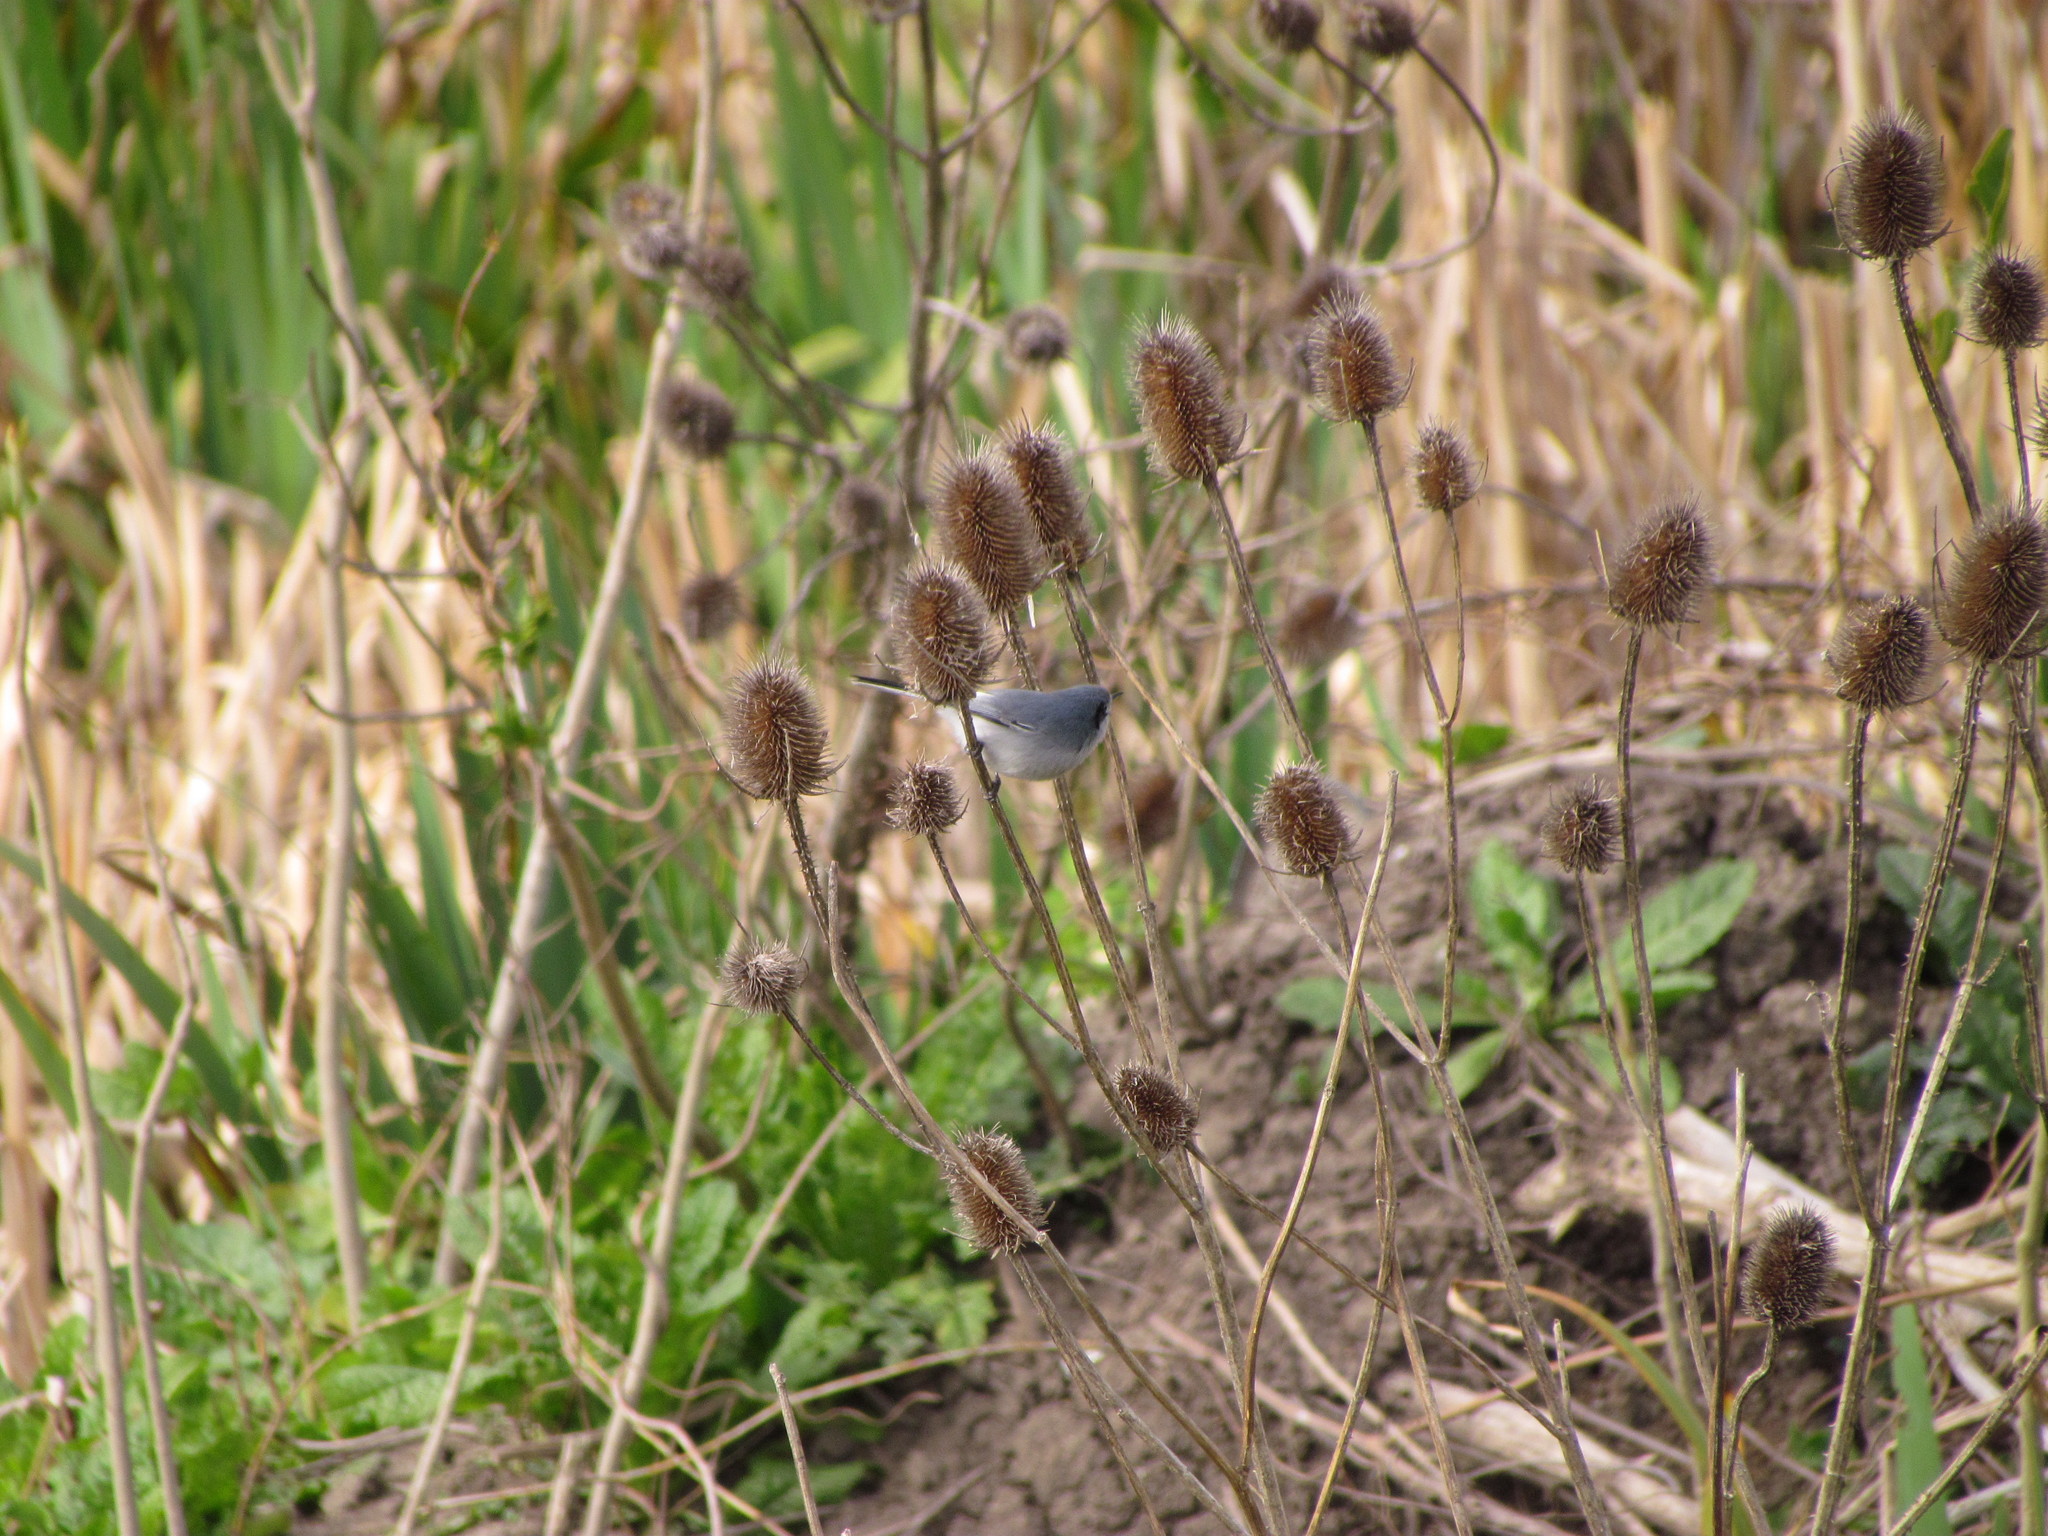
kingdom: Animalia
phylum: Chordata
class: Aves
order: Passeriformes
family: Polioptilidae
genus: Polioptila
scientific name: Polioptila dumicola
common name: Masked gnatcatcher
